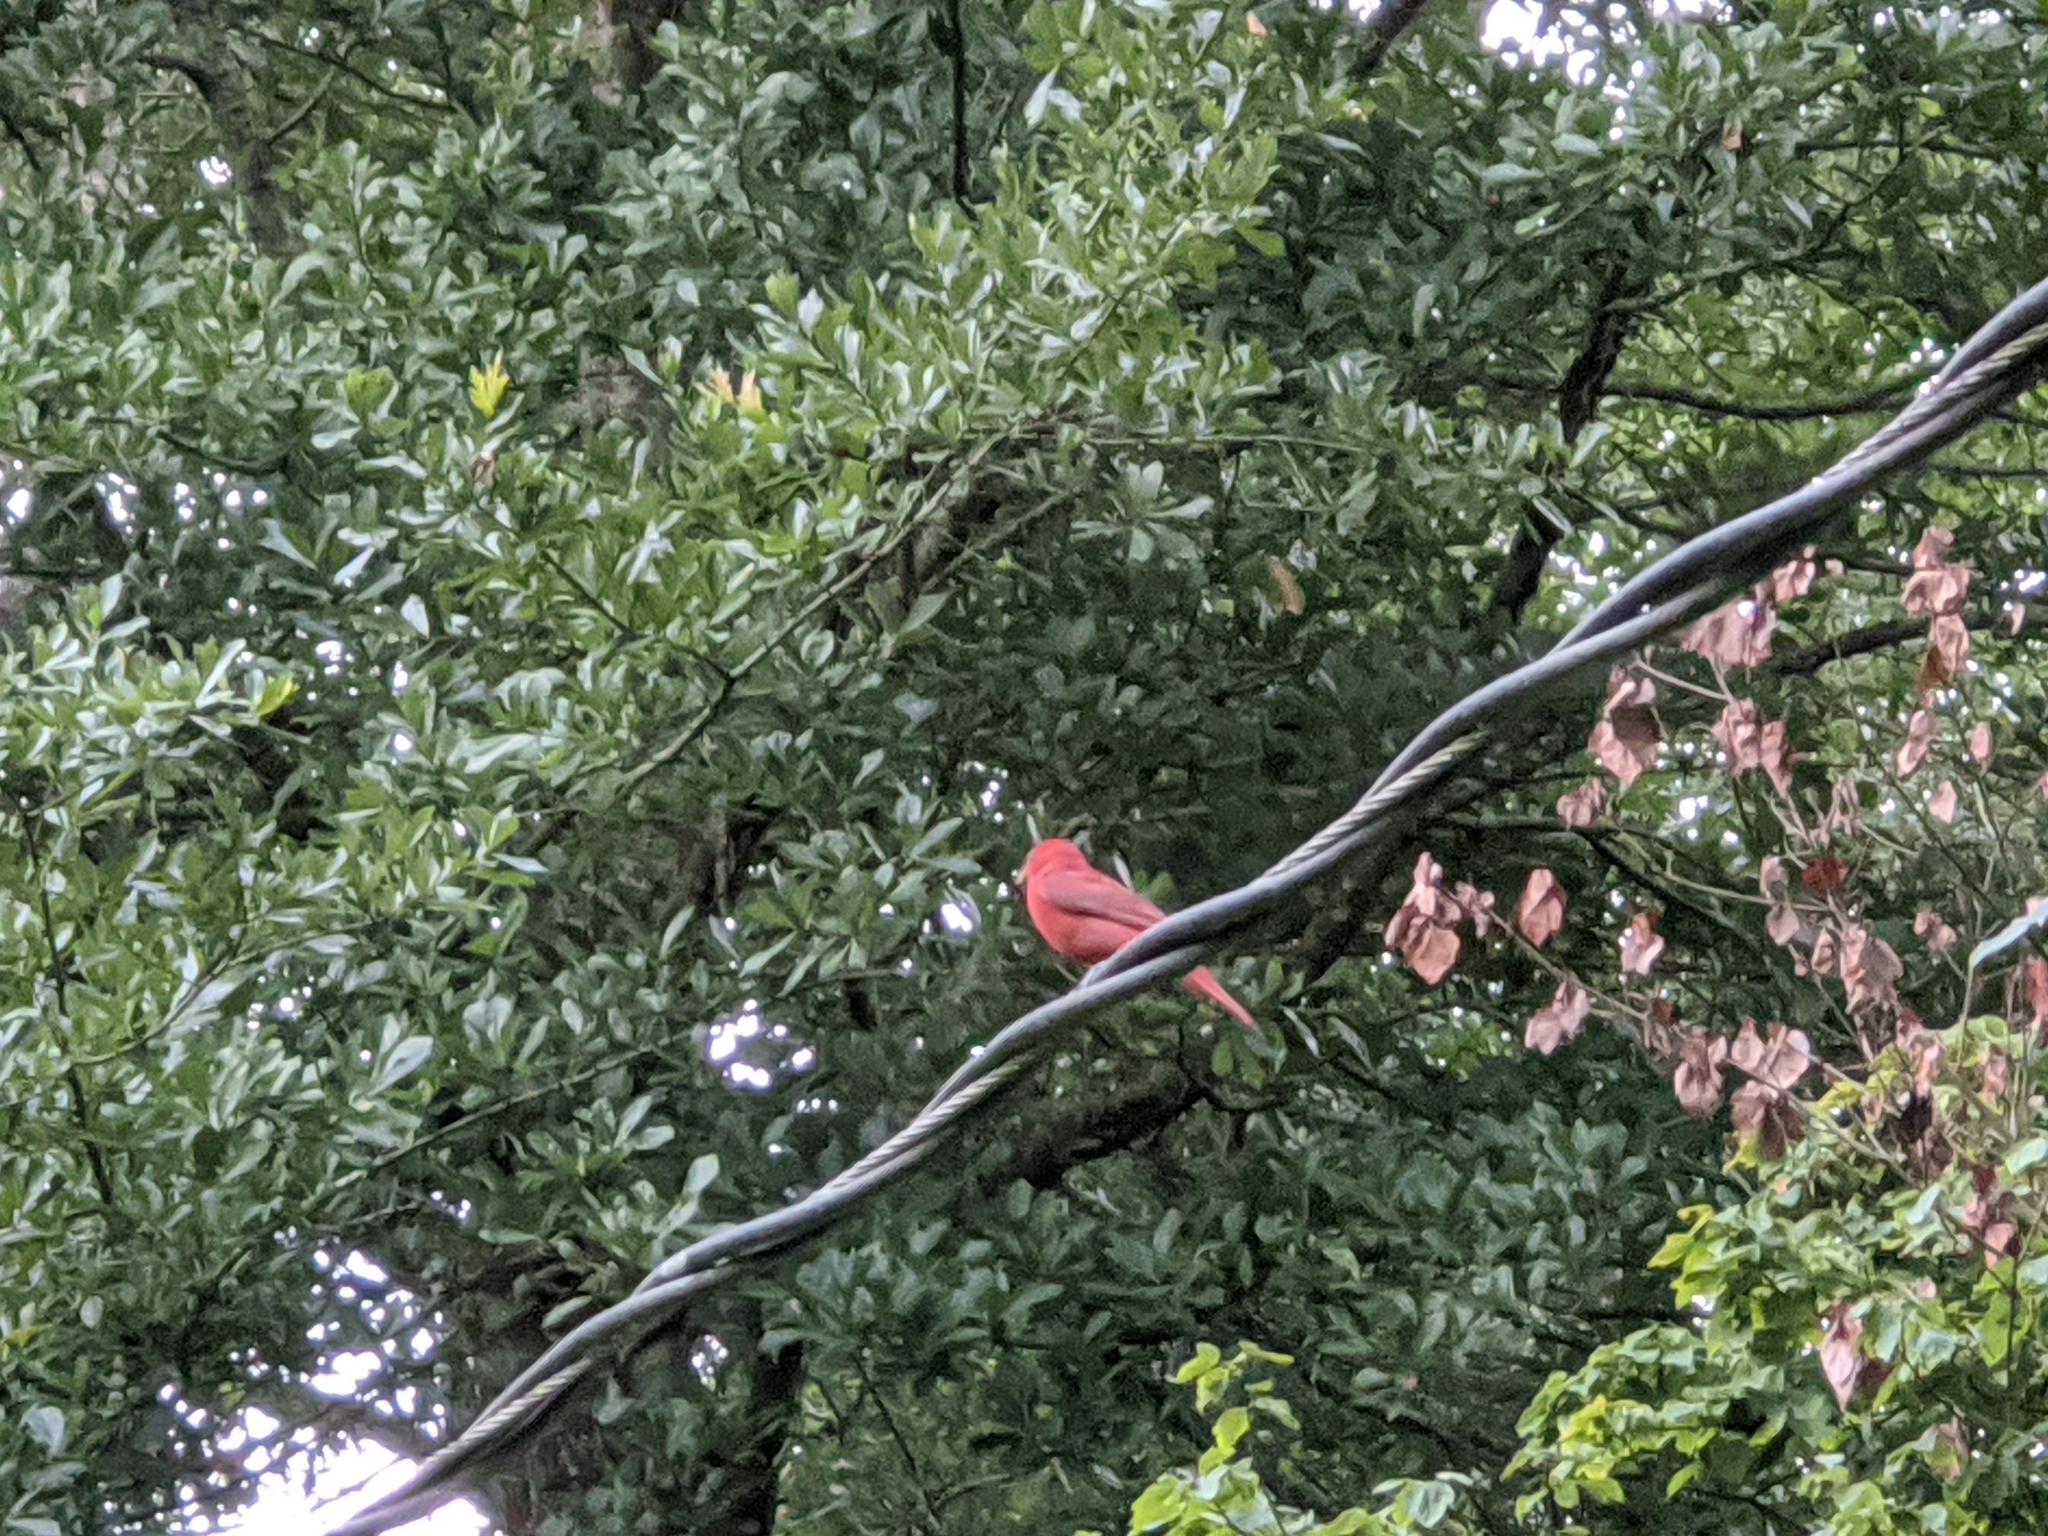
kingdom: Animalia
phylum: Chordata
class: Aves
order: Passeriformes
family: Cardinalidae
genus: Piranga
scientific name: Piranga rubra
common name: Summer tanager
